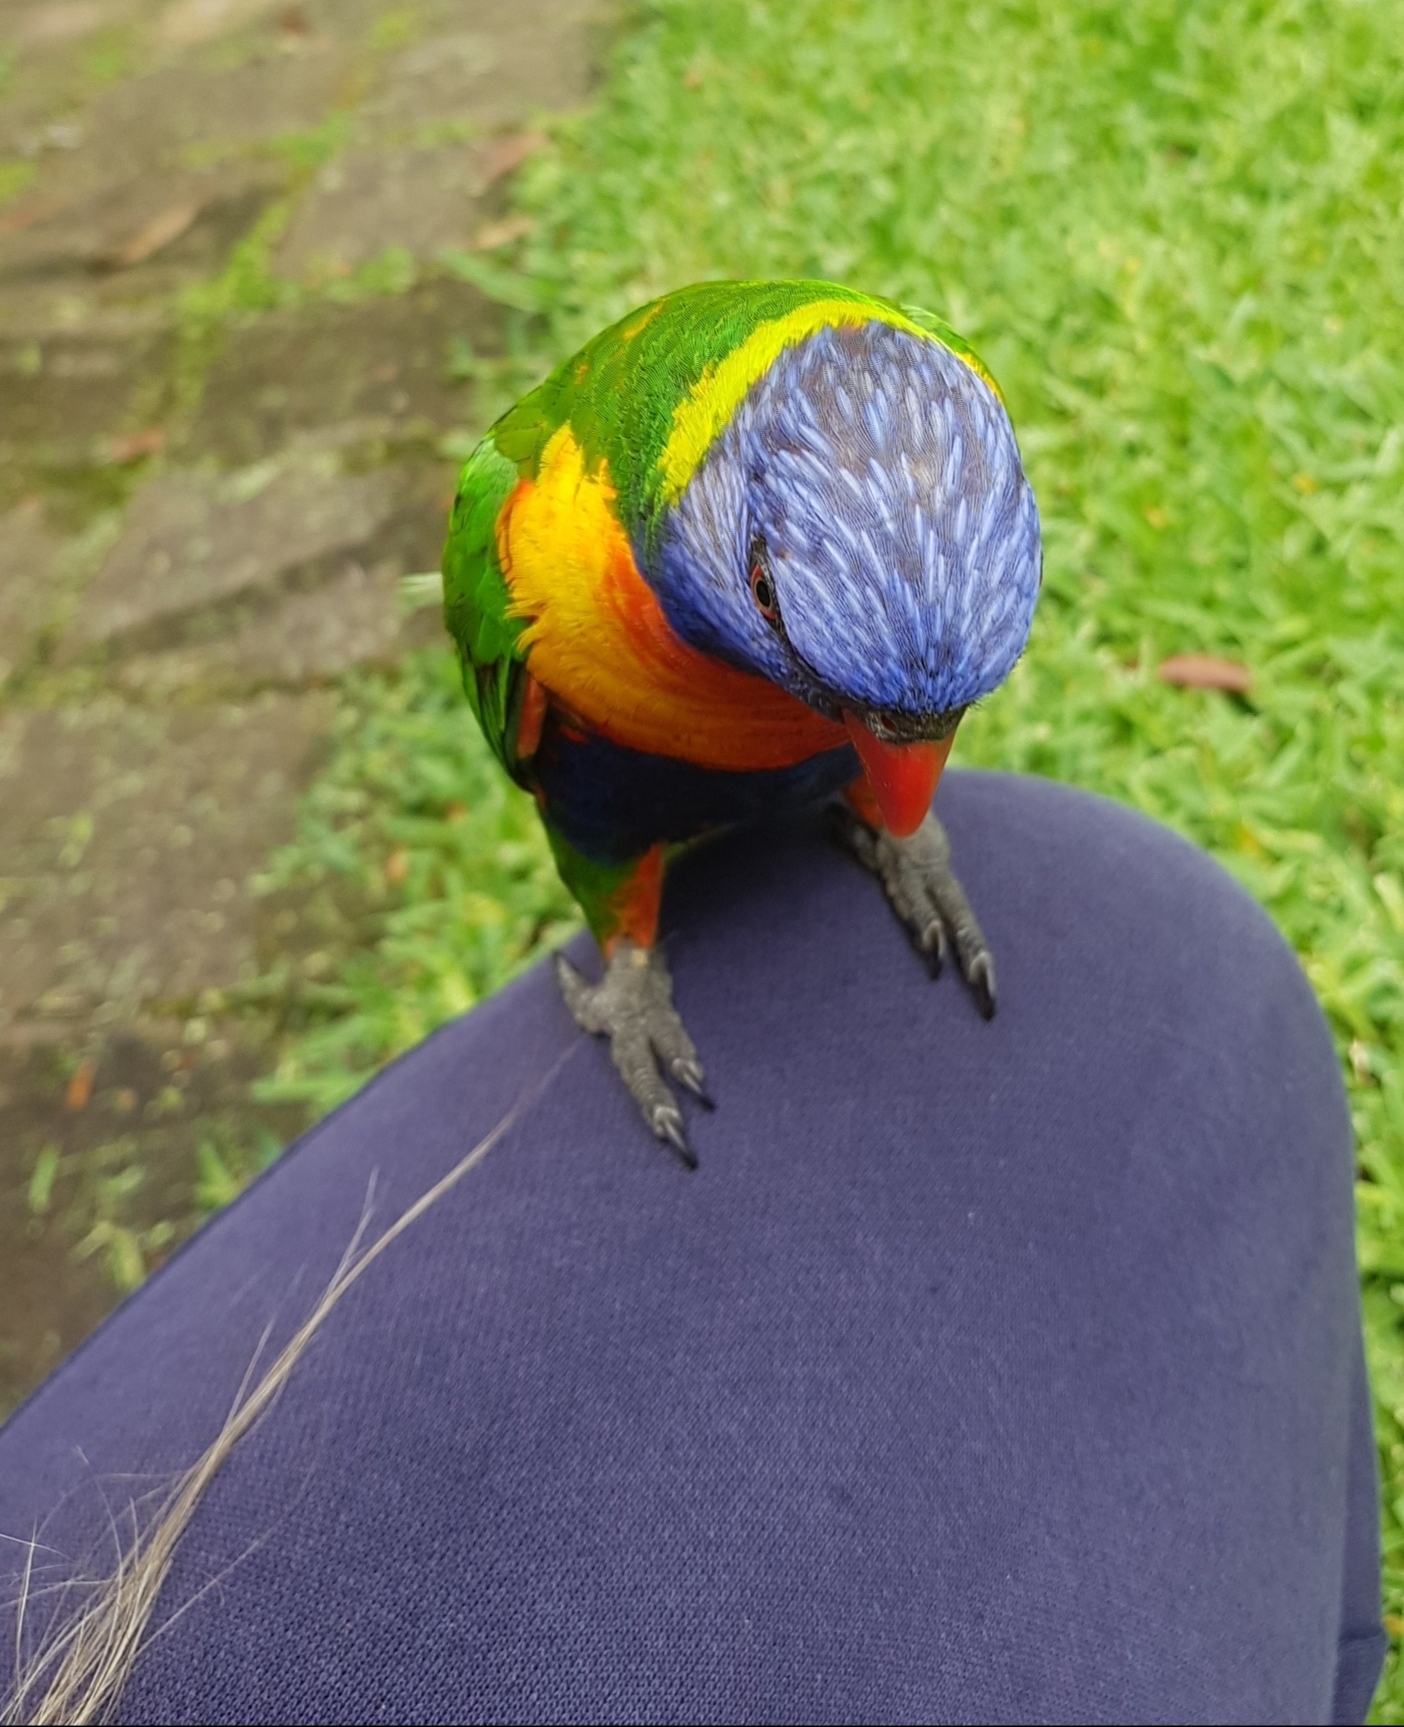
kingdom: Animalia
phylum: Chordata
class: Aves
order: Psittaciformes
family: Psittacidae
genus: Trichoglossus
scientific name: Trichoglossus haematodus
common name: Coconut lorikeet
